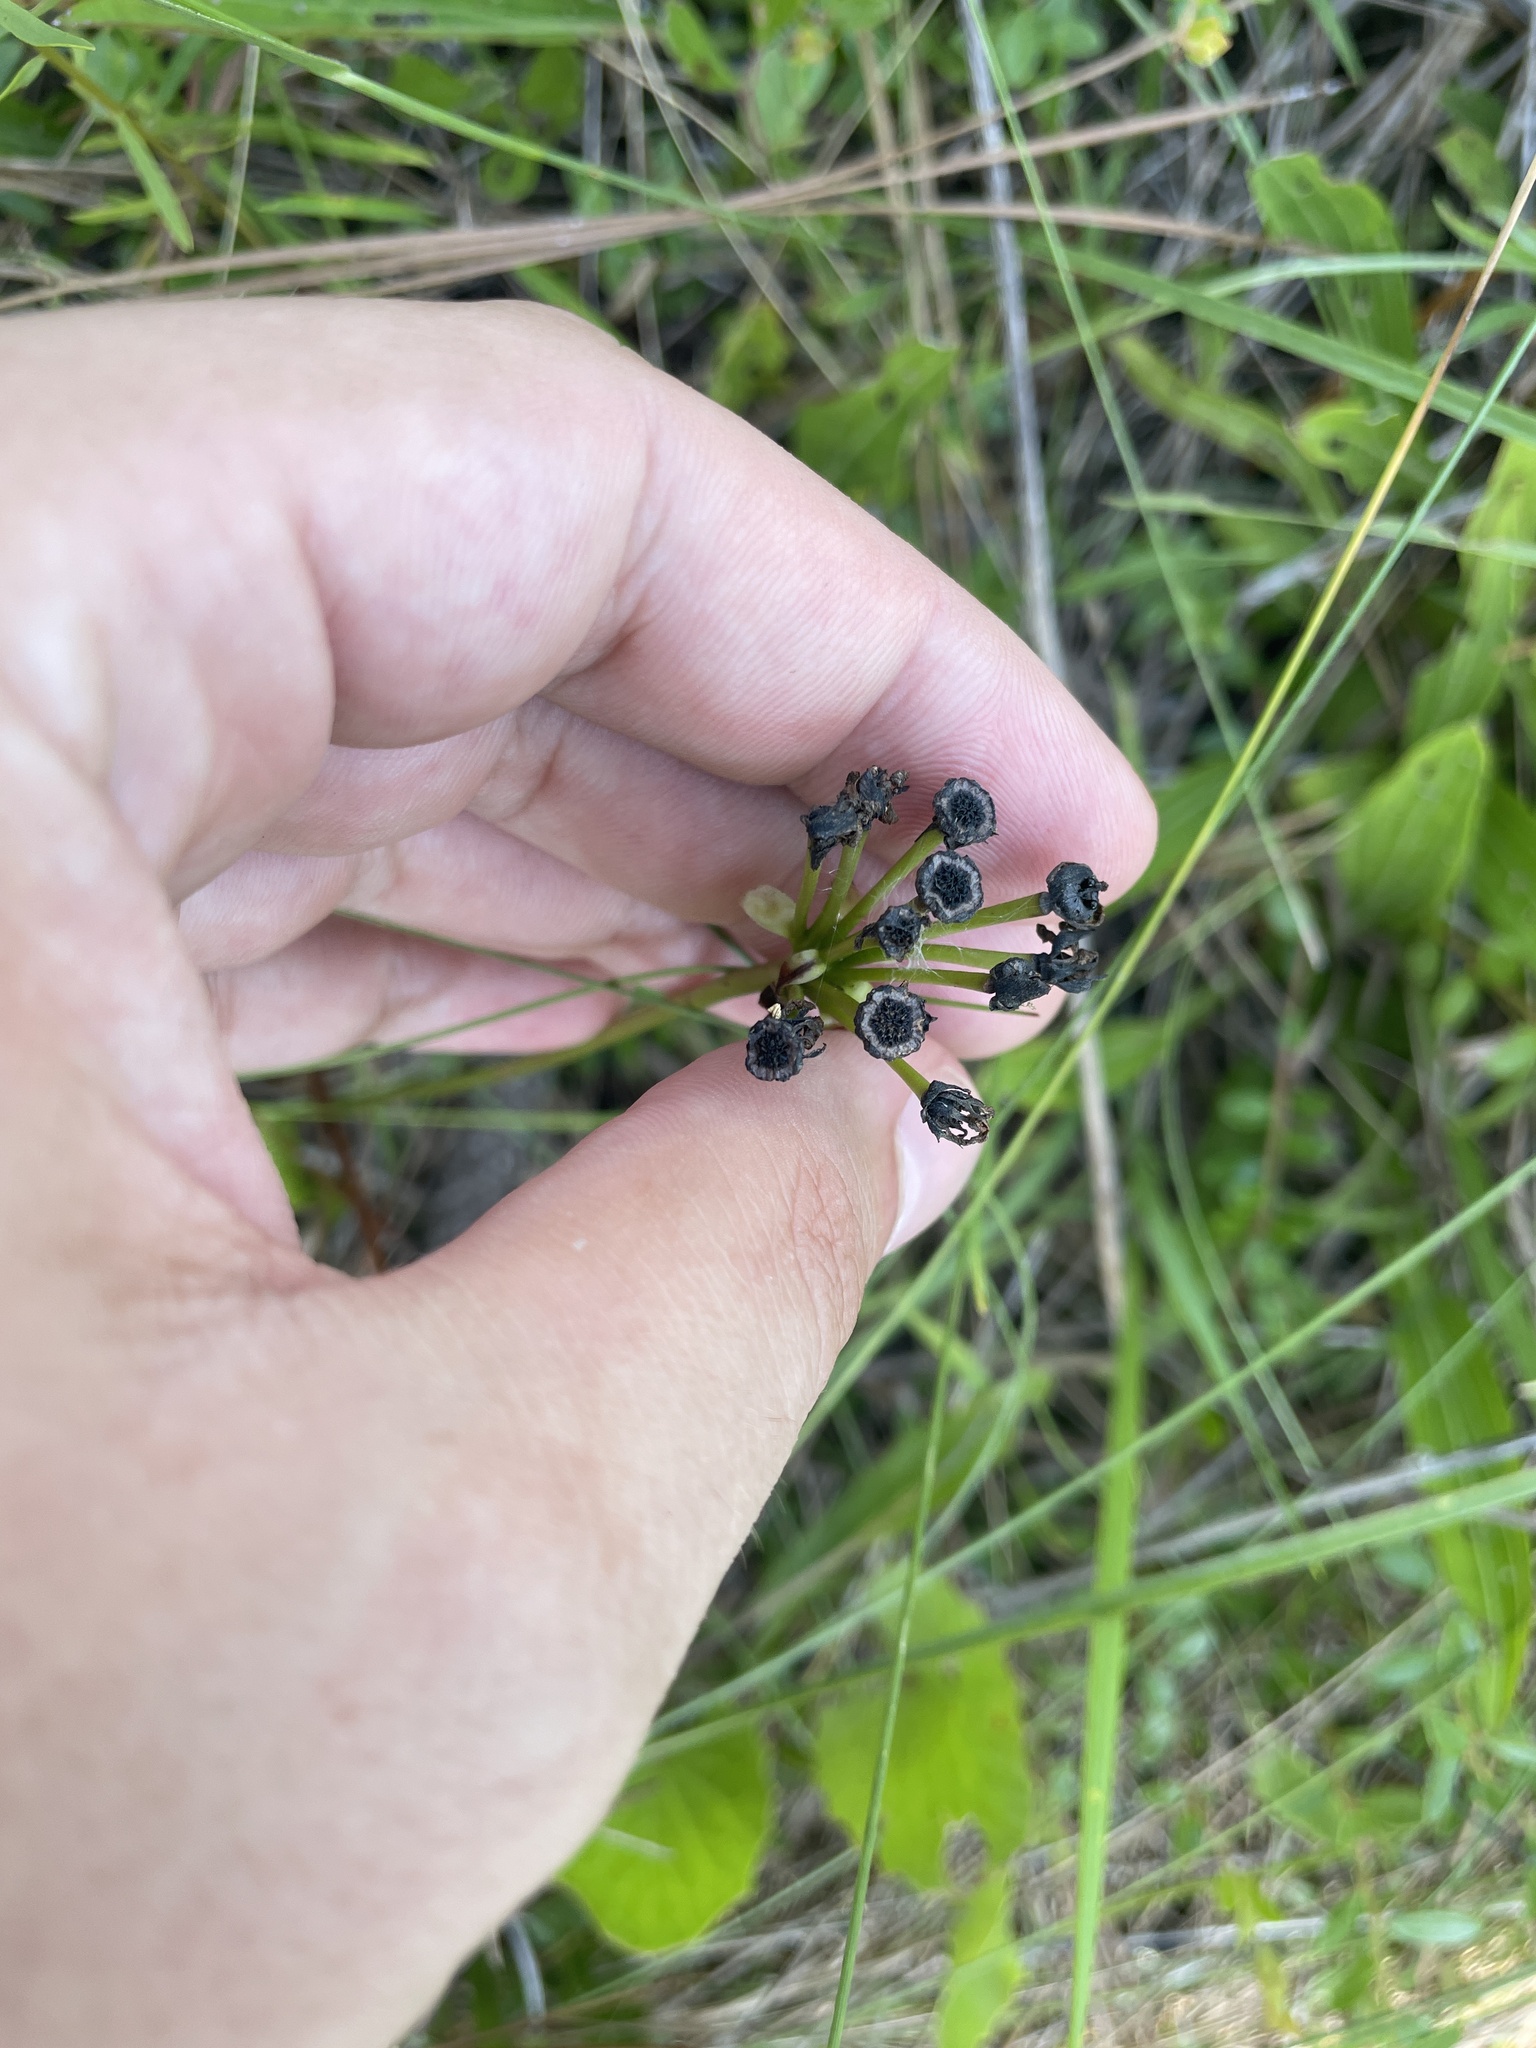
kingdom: Plantae
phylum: Tracheophyta
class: Magnoliopsida
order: Caryophyllales
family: Droseraceae
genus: Dionaea
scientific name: Dionaea muscipula
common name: Venus flytrap
